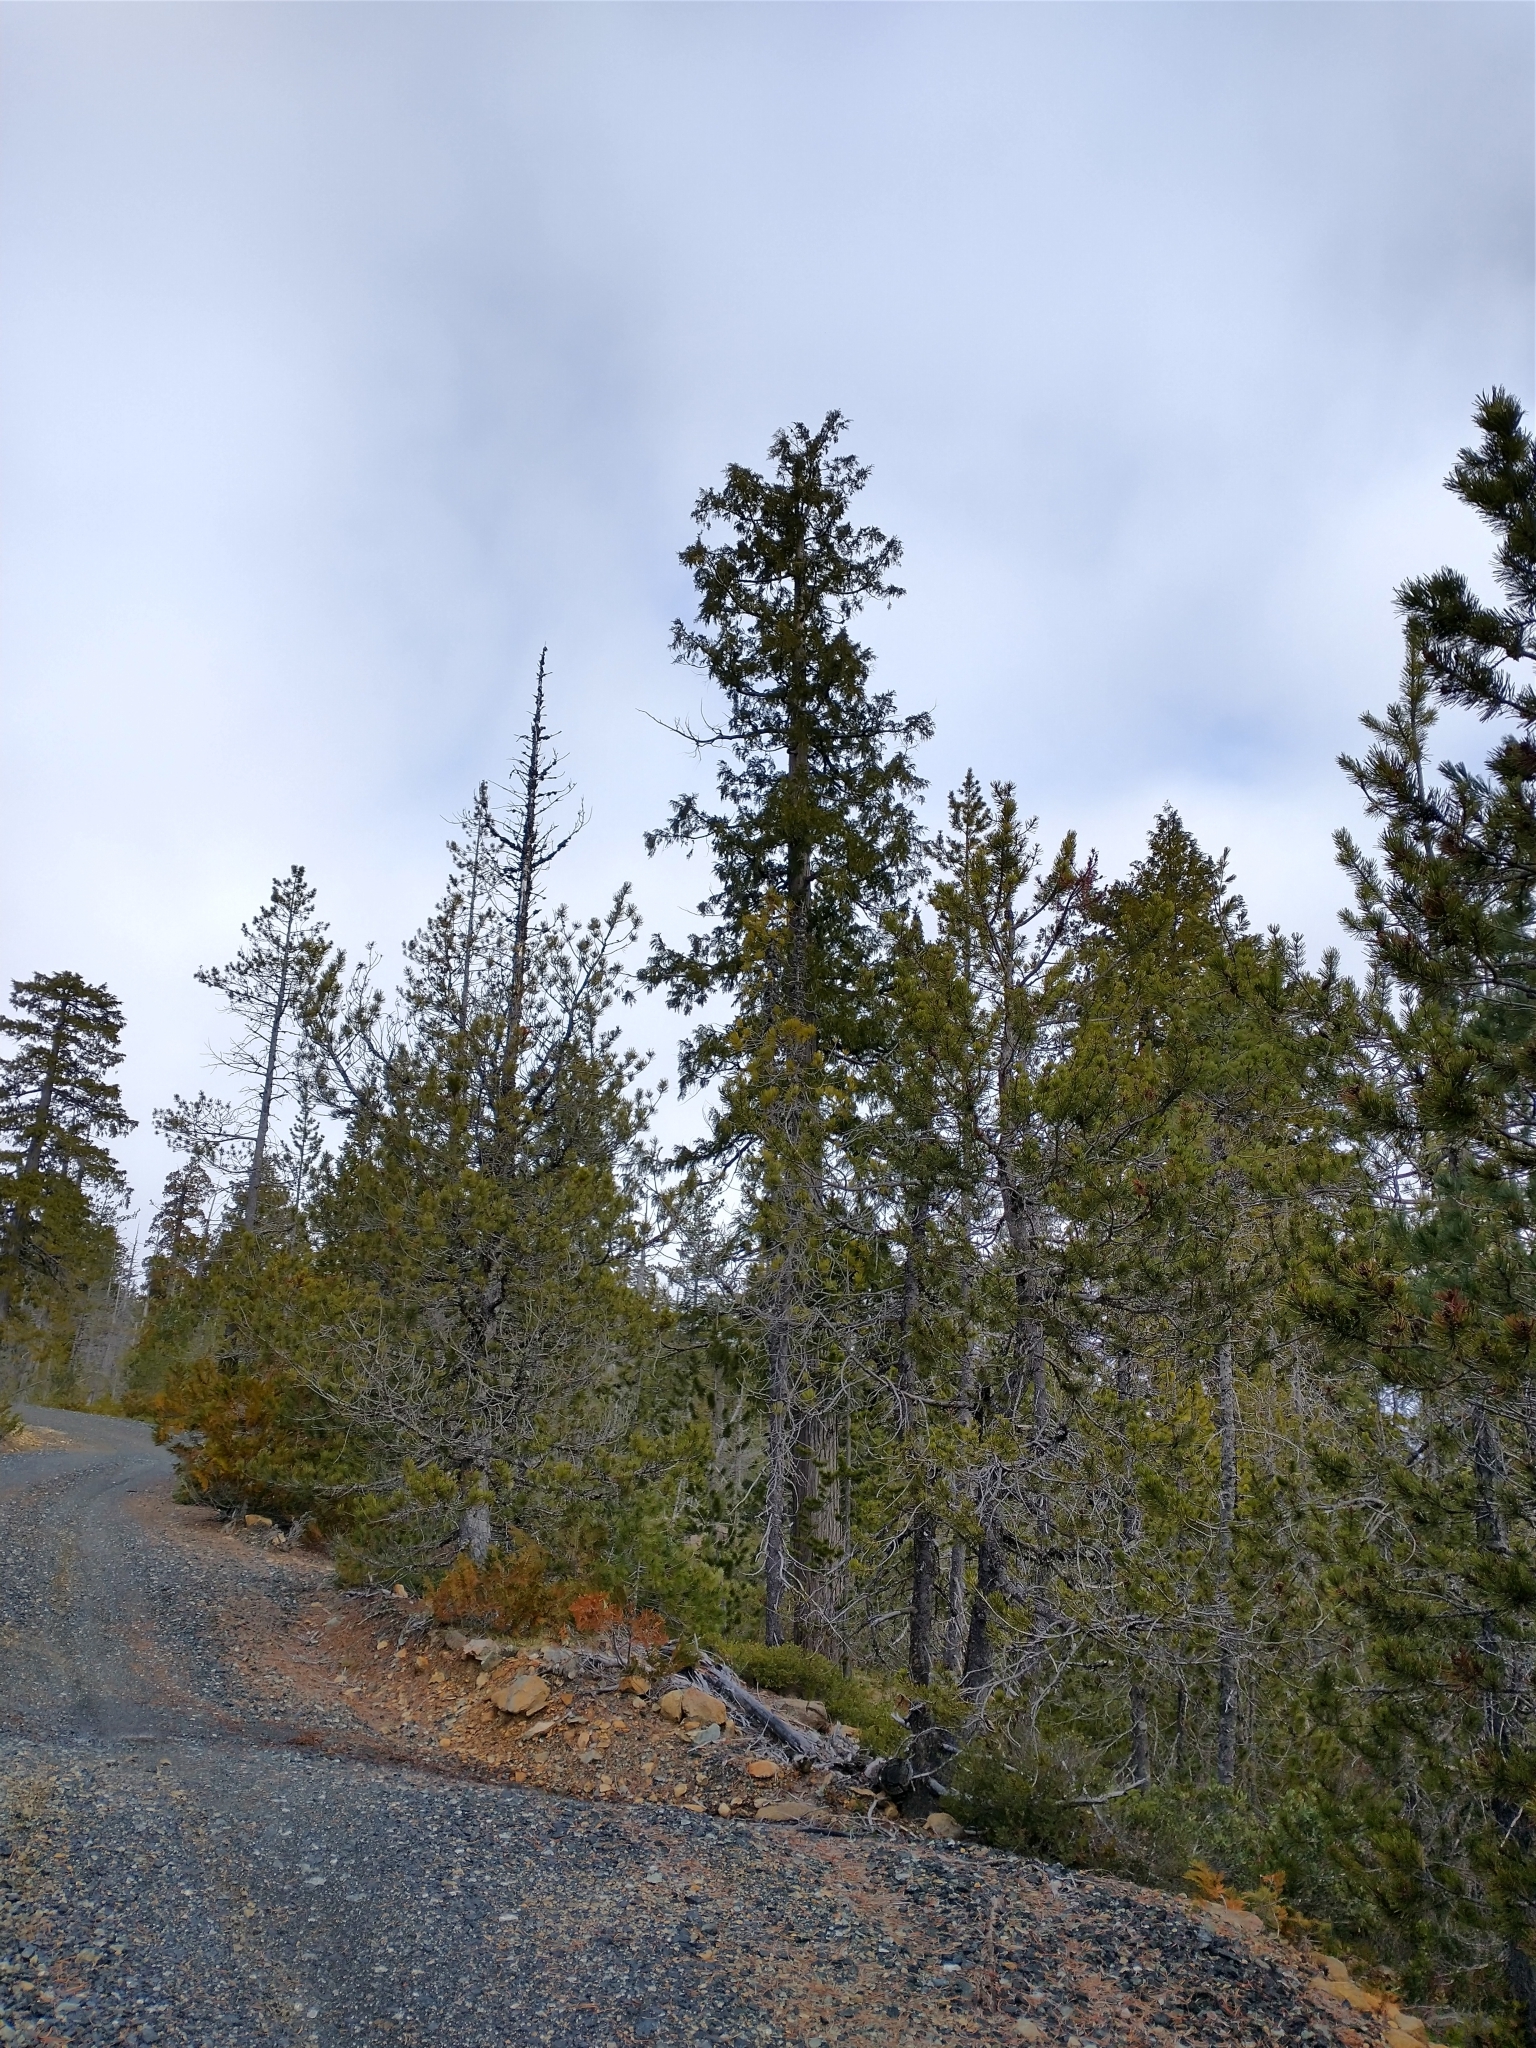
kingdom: Plantae
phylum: Tracheophyta
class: Pinopsida
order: Pinales
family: Cupressaceae
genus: Chamaecyparis
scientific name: Chamaecyparis lawsoniana
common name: Lawson's cypress
